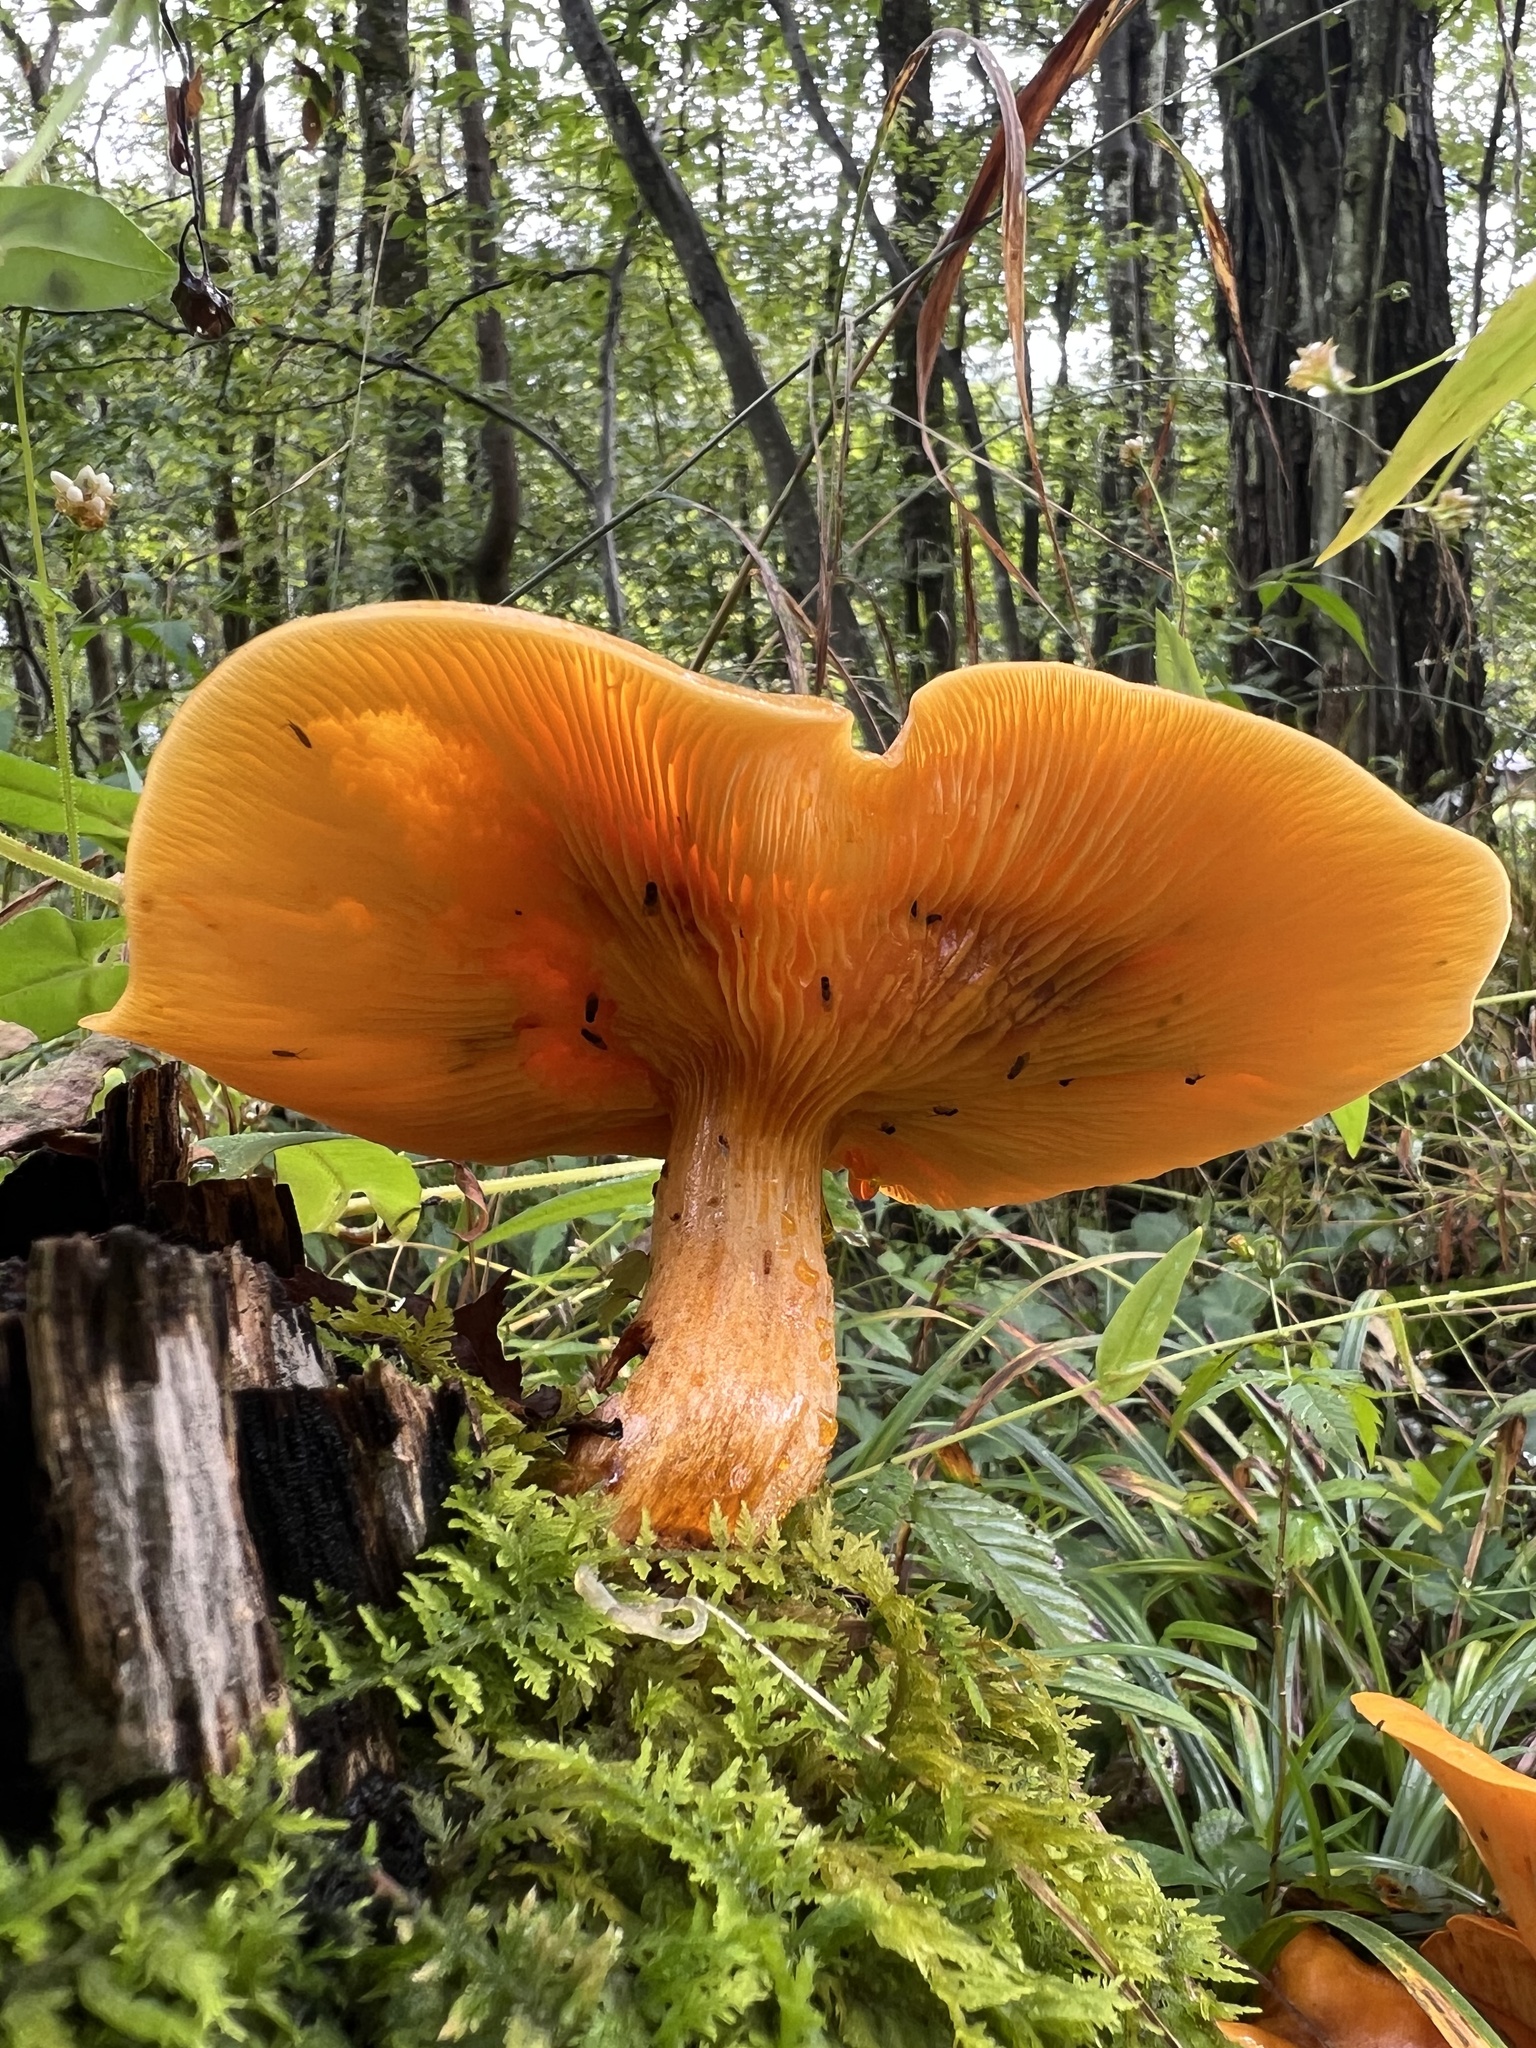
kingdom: Fungi
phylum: Basidiomycota
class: Agaricomycetes
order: Agaricales
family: Omphalotaceae
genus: Omphalotus
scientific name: Omphalotus illudens
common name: Jack o lantern
